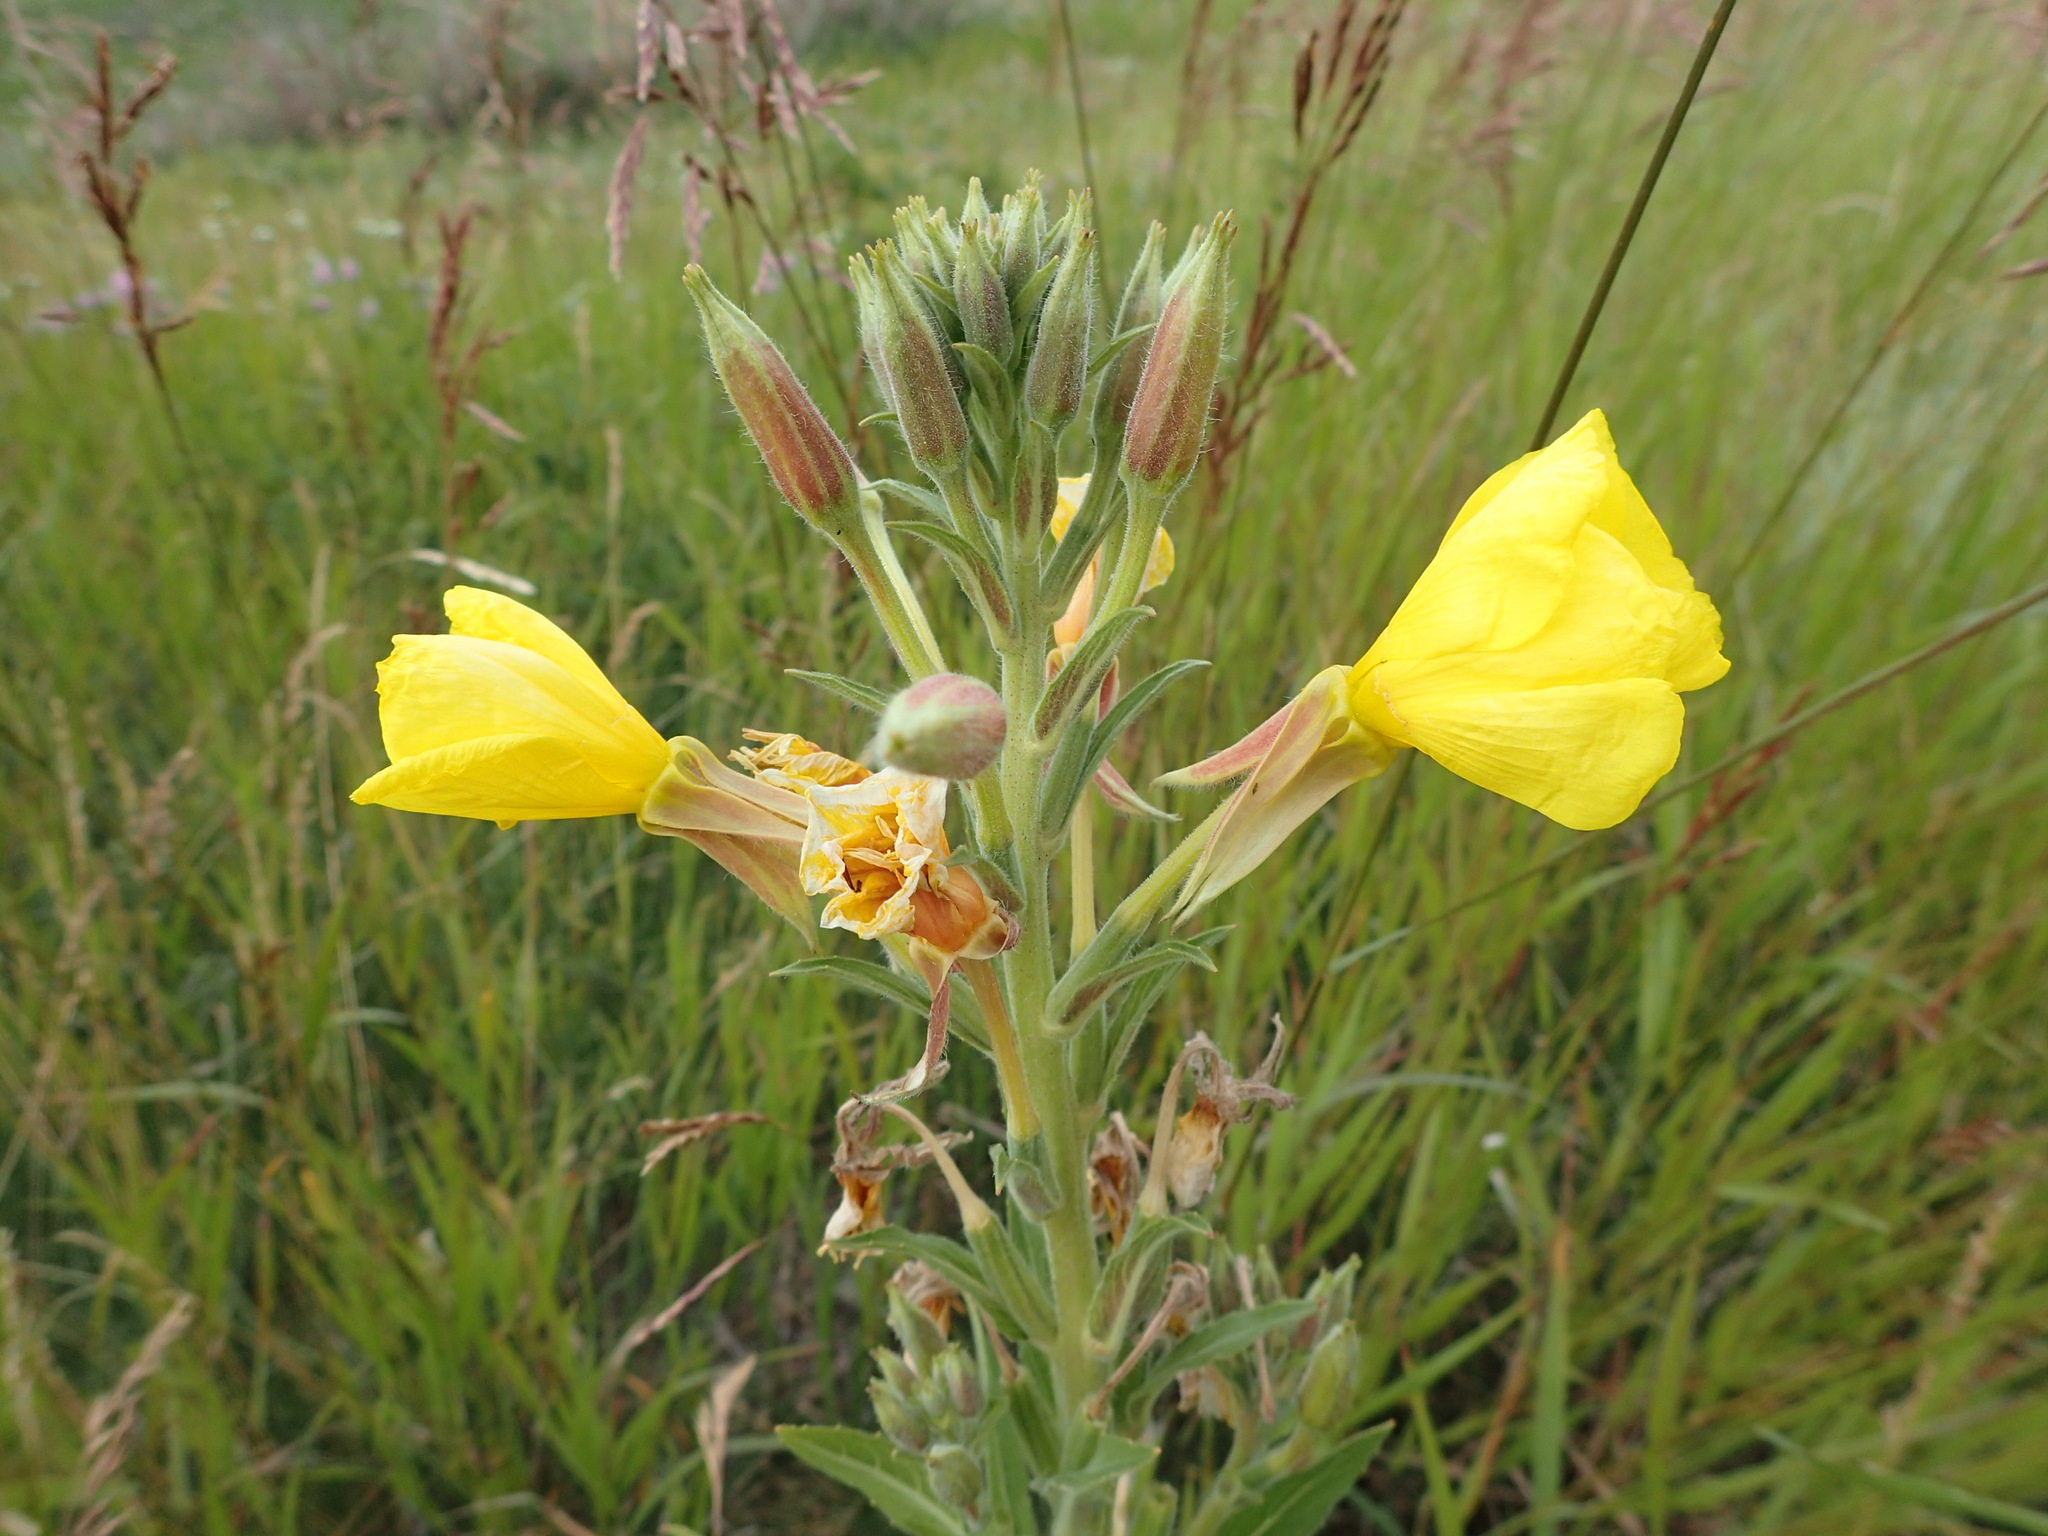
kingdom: Plantae
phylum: Tracheophyta
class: Magnoliopsida
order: Myrtales
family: Onagraceae
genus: Oenothera
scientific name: Oenothera biennis
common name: Common evening-primrose
